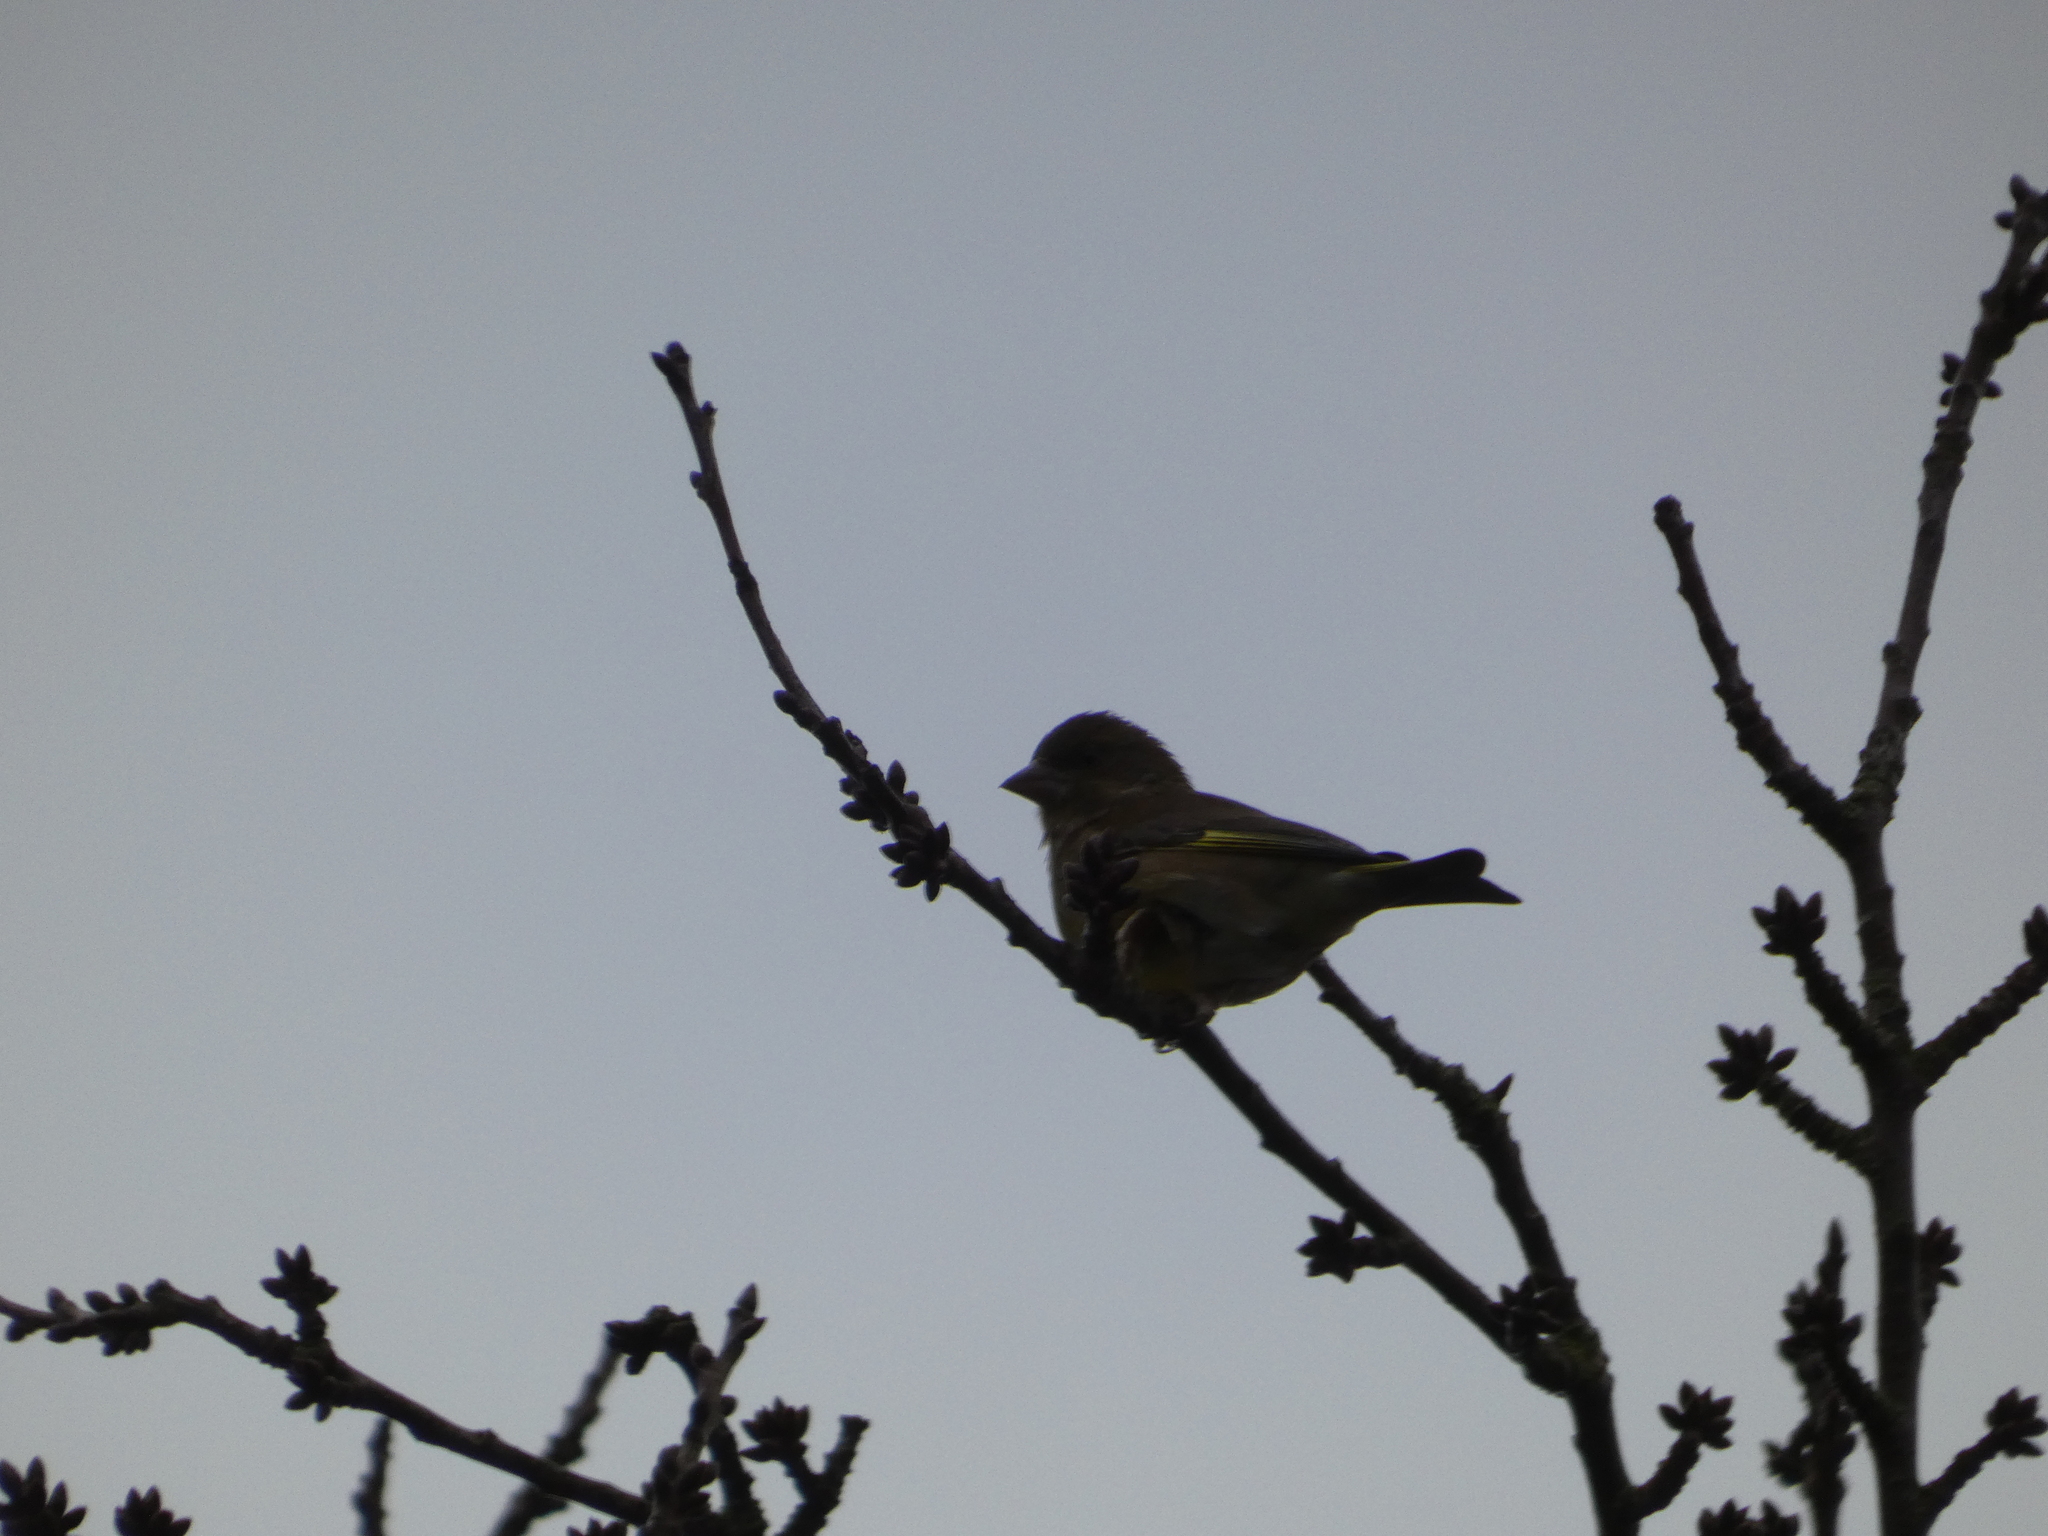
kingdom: Plantae
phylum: Tracheophyta
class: Liliopsida
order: Poales
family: Poaceae
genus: Chloris
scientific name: Chloris chloris
